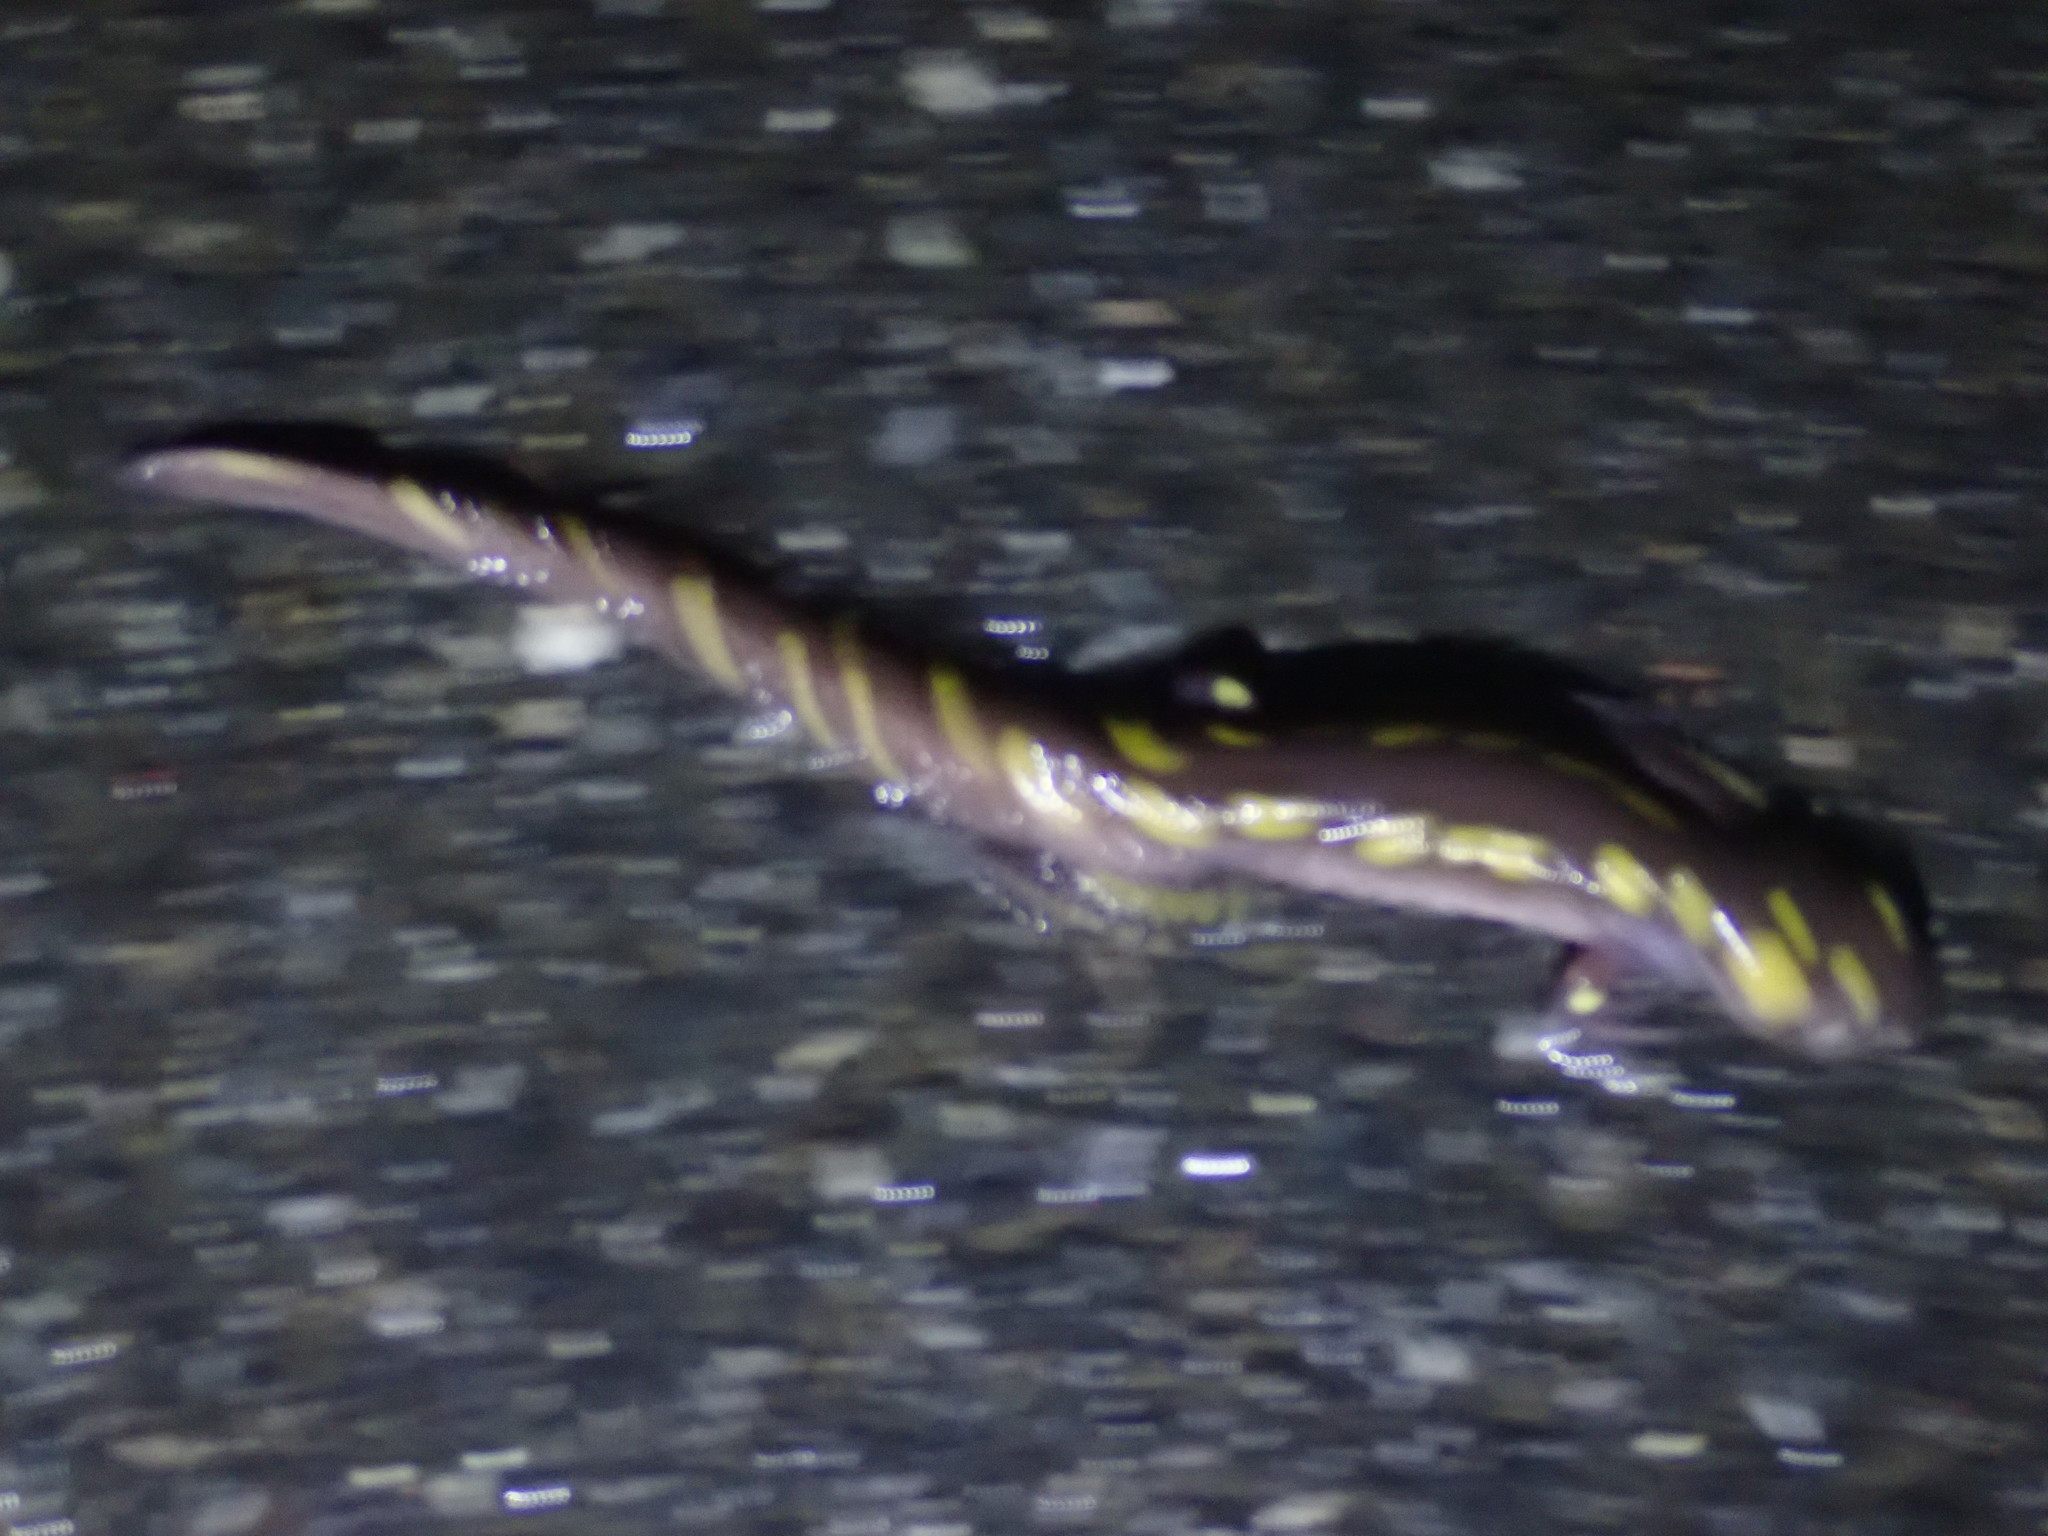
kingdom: Animalia
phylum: Chordata
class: Amphibia
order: Caudata
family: Ambystomatidae
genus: Ambystoma
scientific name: Ambystoma maculatum
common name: Spotted salamander
